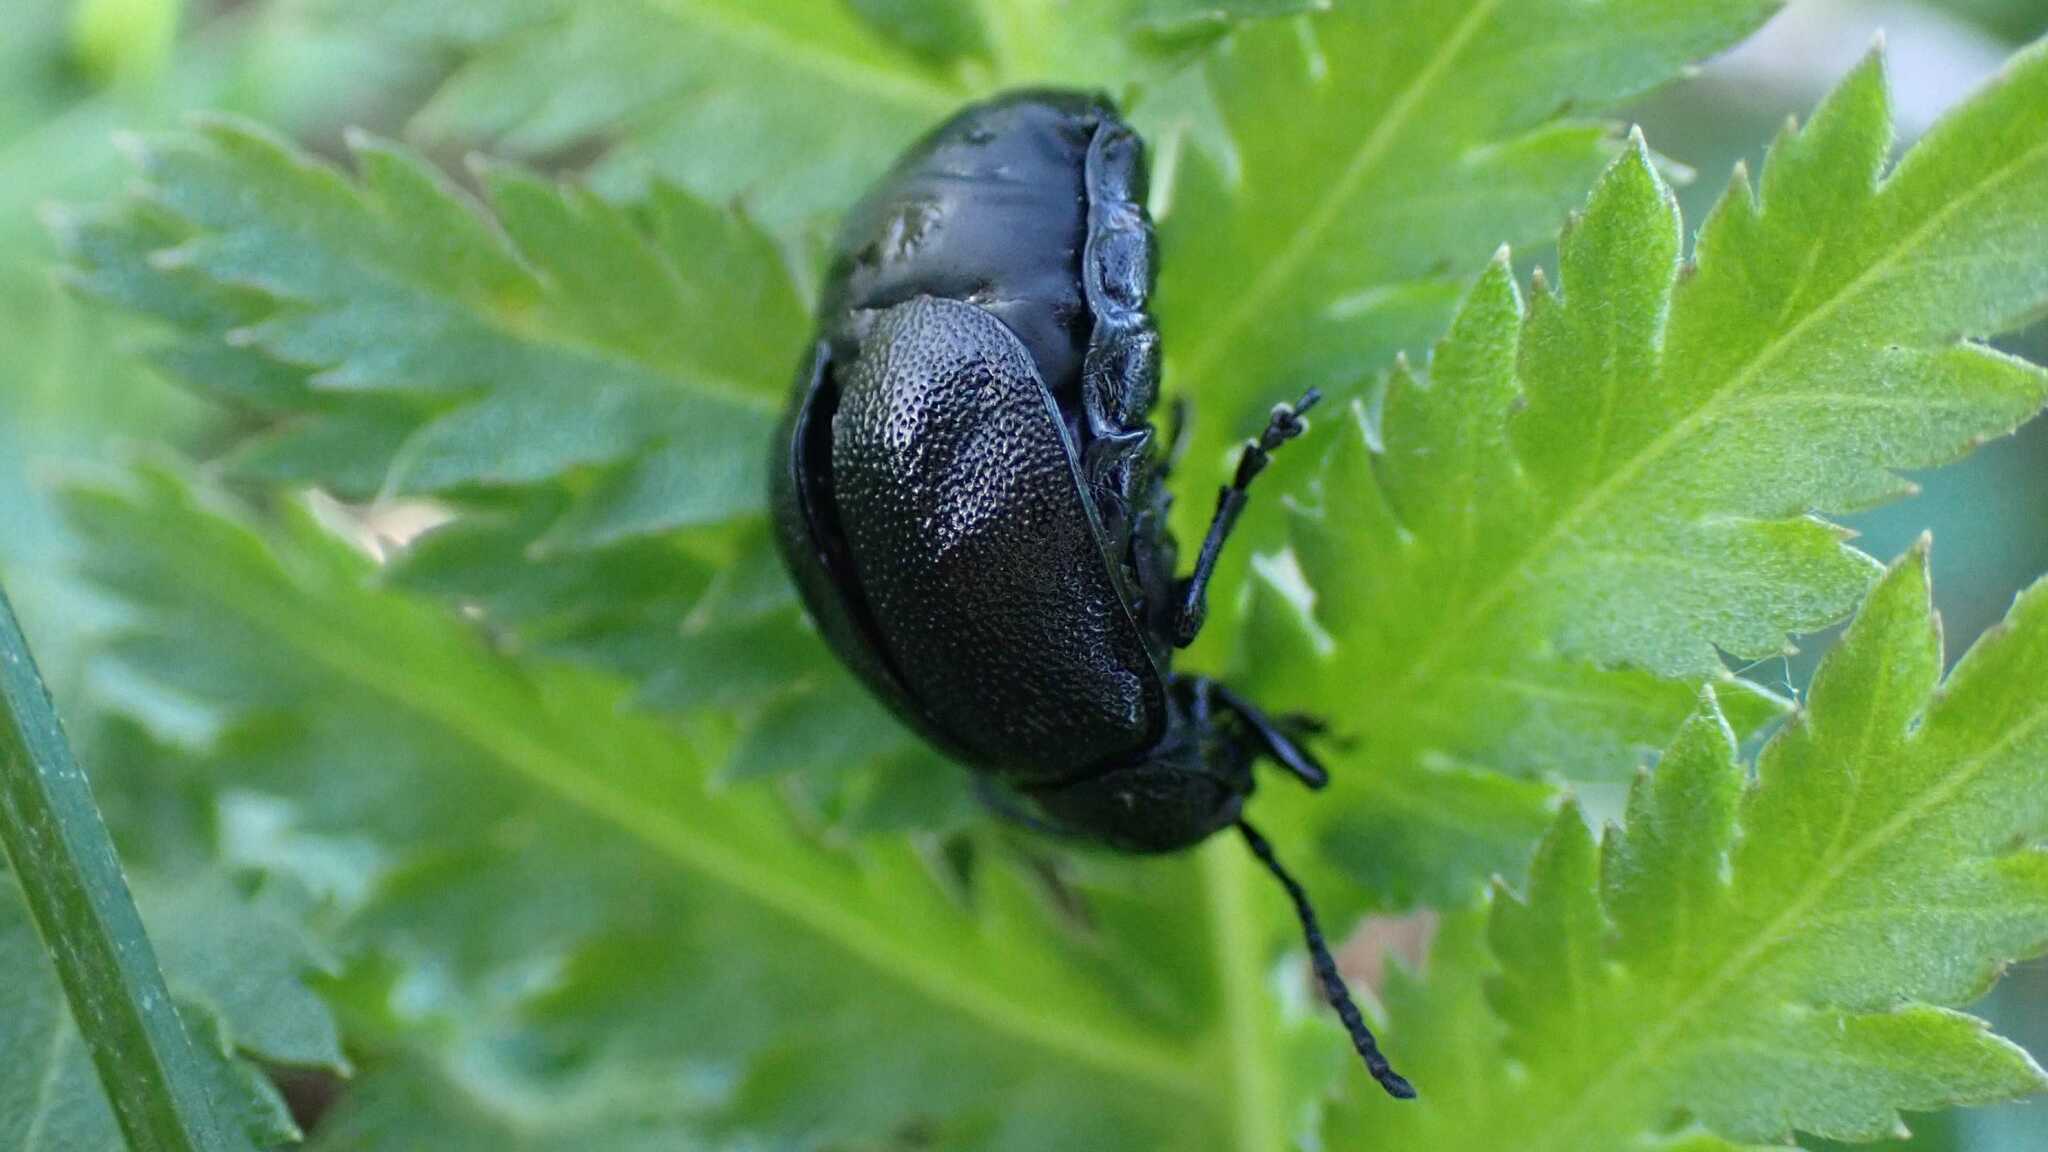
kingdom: Animalia
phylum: Arthropoda
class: Insecta
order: Coleoptera
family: Chrysomelidae
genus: Galeruca
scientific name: Galeruca tanaceti
